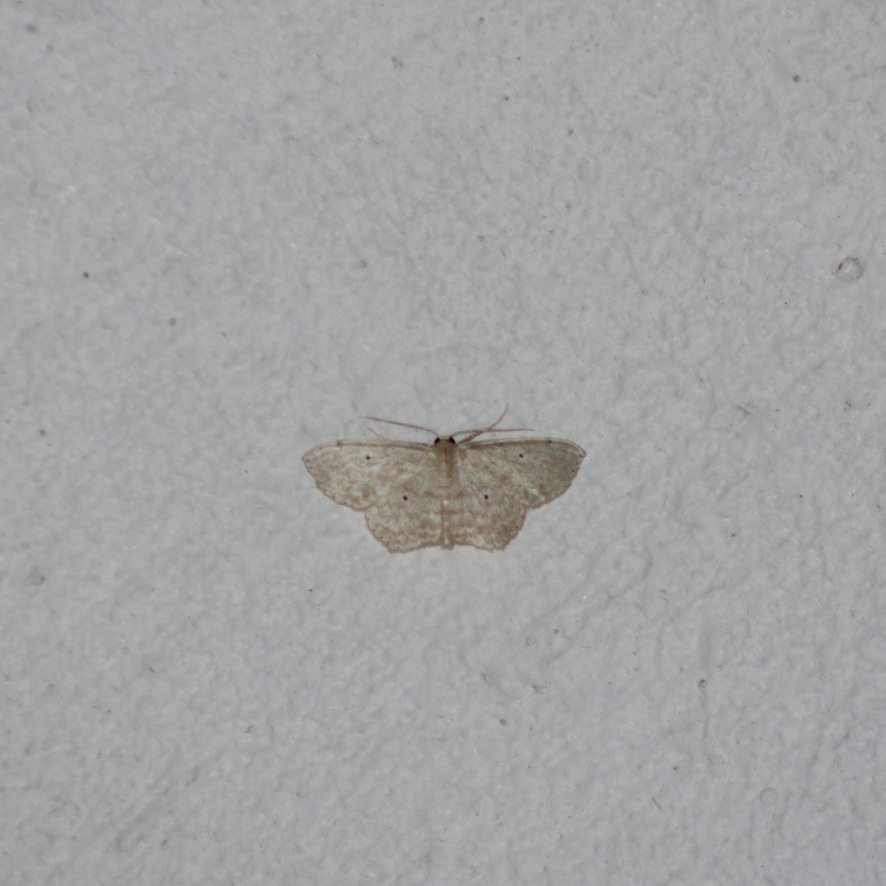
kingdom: Animalia
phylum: Arthropoda
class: Insecta
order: Lepidoptera
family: Geometridae
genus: Scopula
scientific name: Scopula apparitaria
